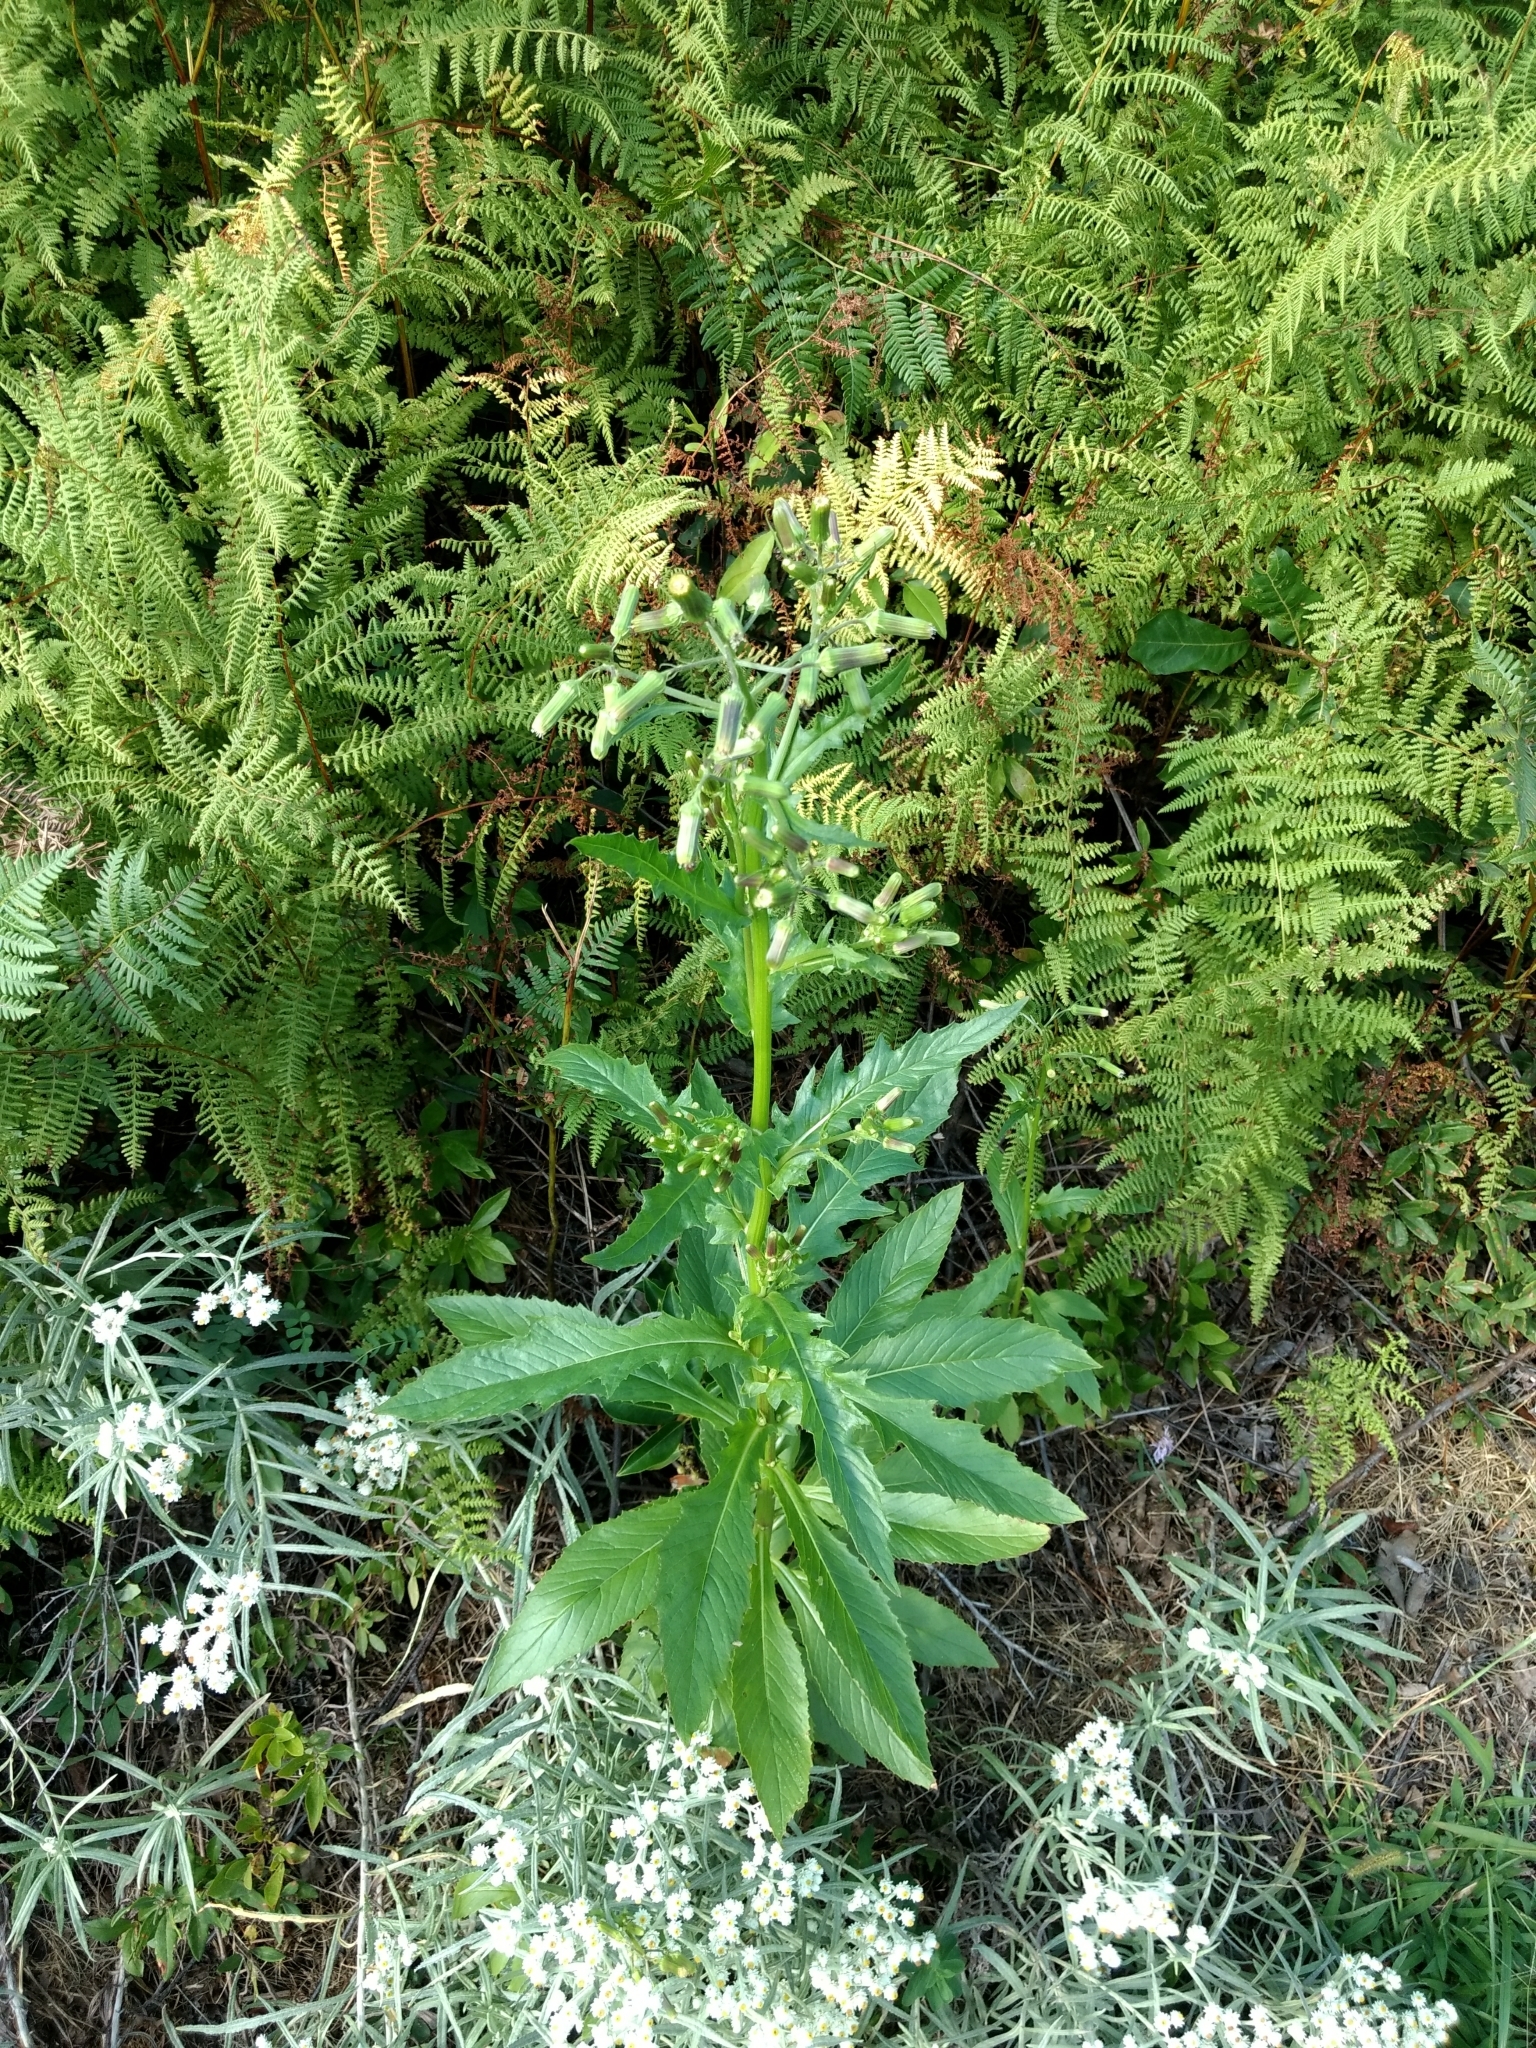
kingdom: Plantae
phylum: Tracheophyta
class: Magnoliopsida
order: Asterales
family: Asteraceae
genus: Erechtites
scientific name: Erechtites hieraciifolius
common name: American burnweed
